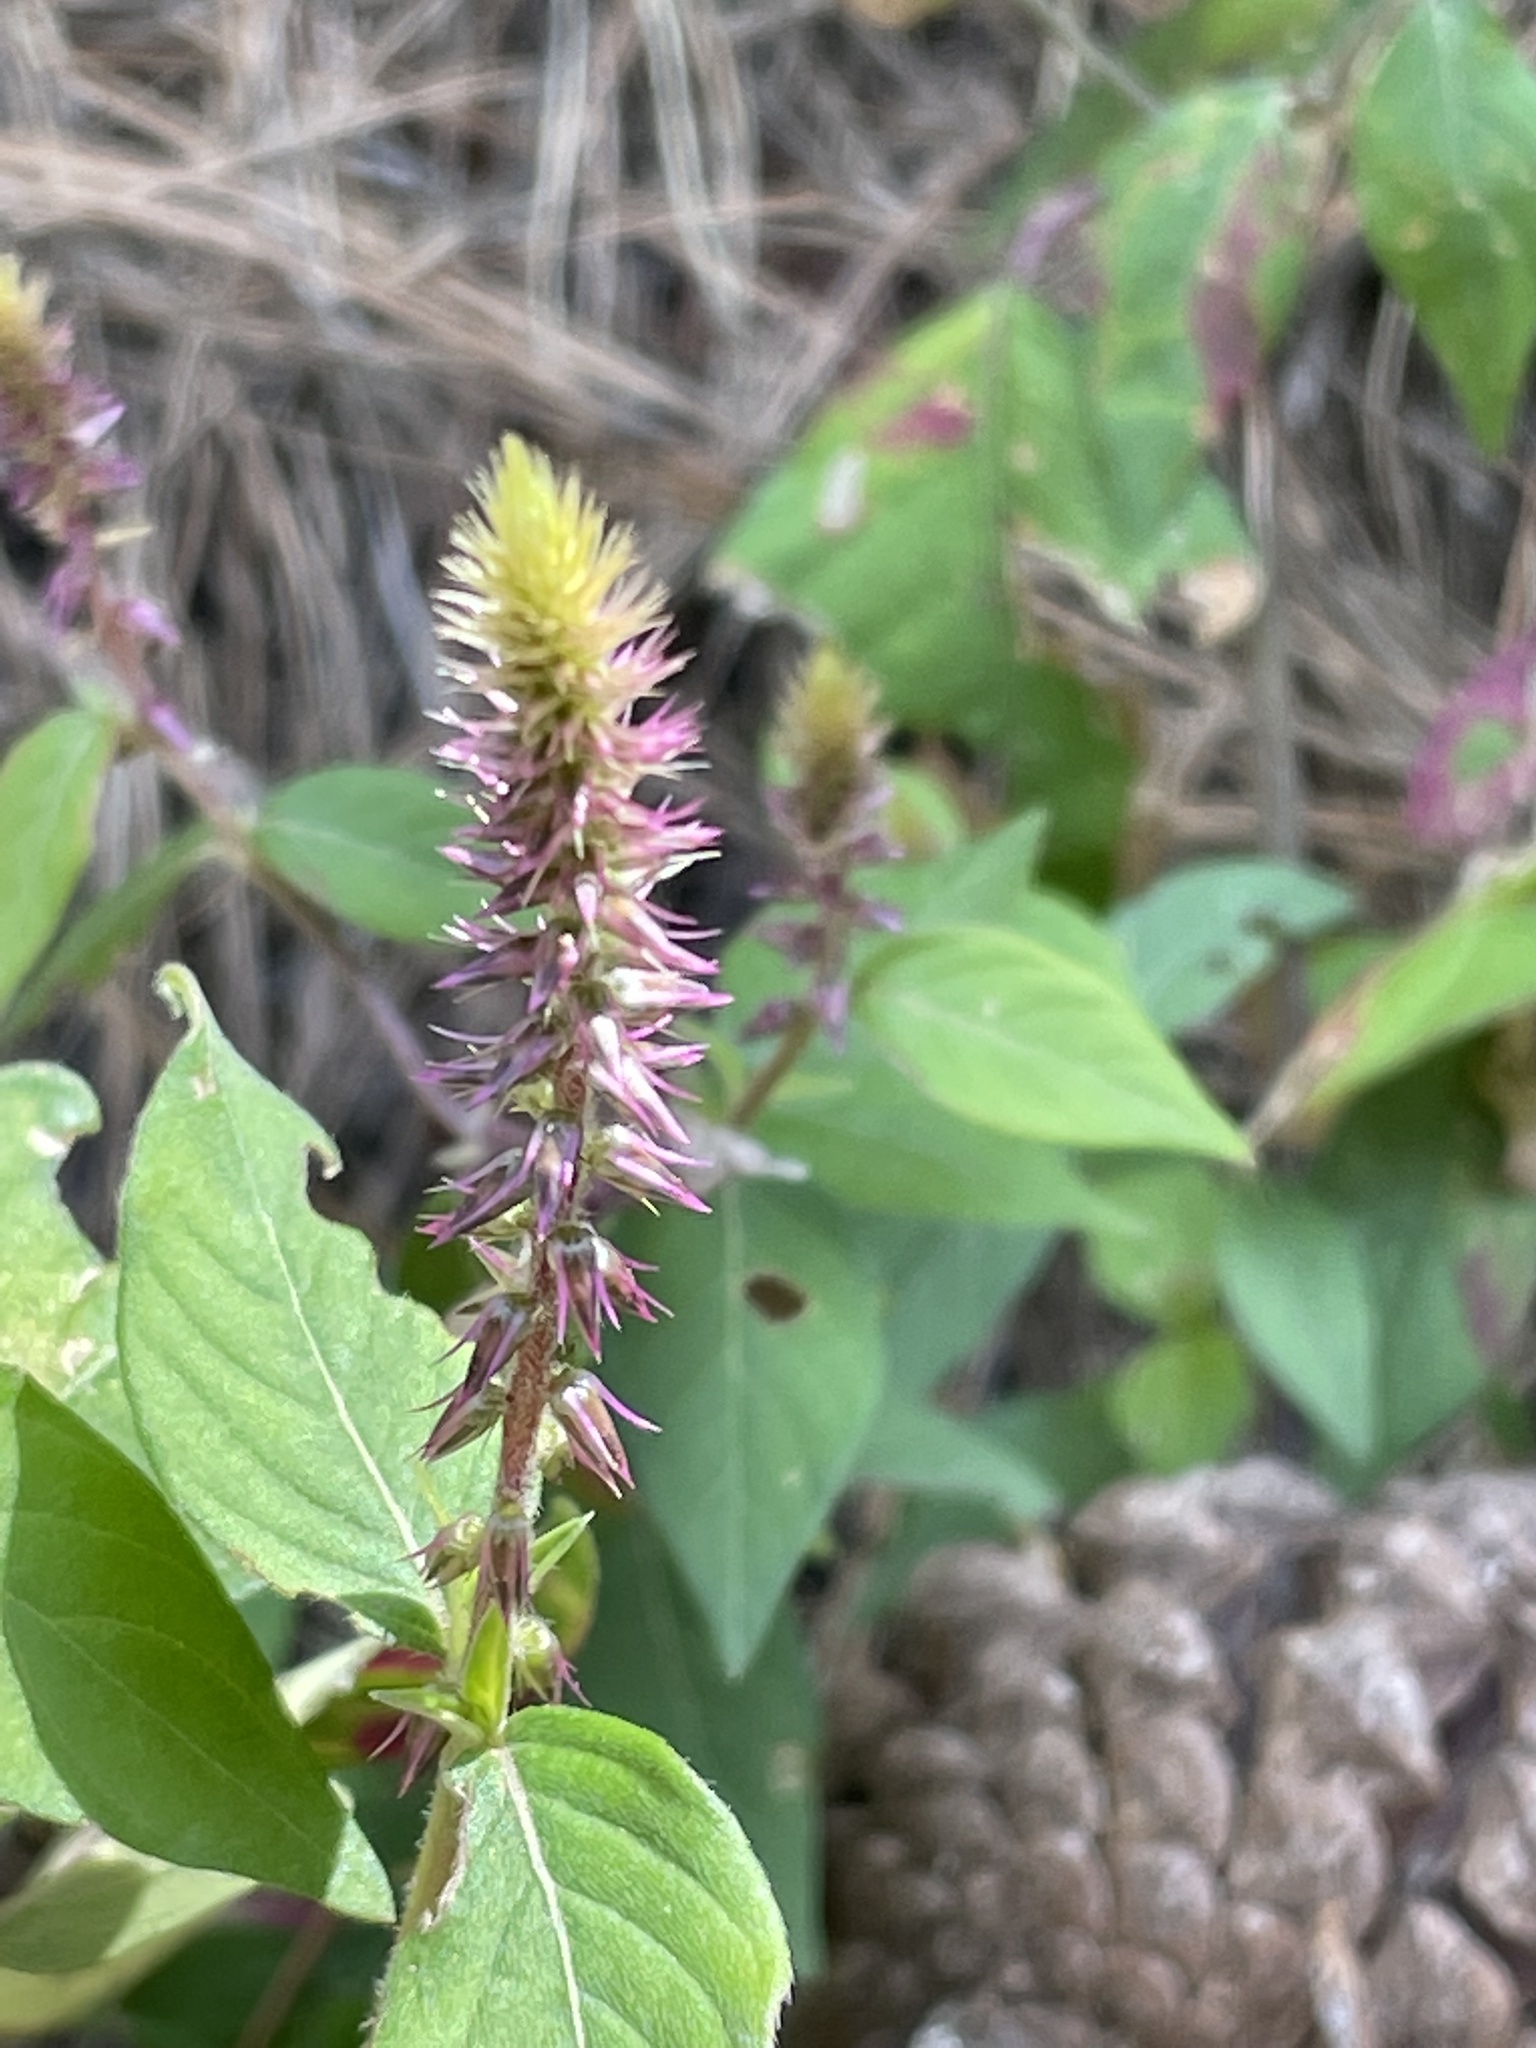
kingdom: Plantae
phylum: Tracheophyta
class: Magnoliopsida
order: Caryophyllales
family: Amaranthaceae
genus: Achyranthes
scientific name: Achyranthes aspera
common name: Devil's horsewhip
